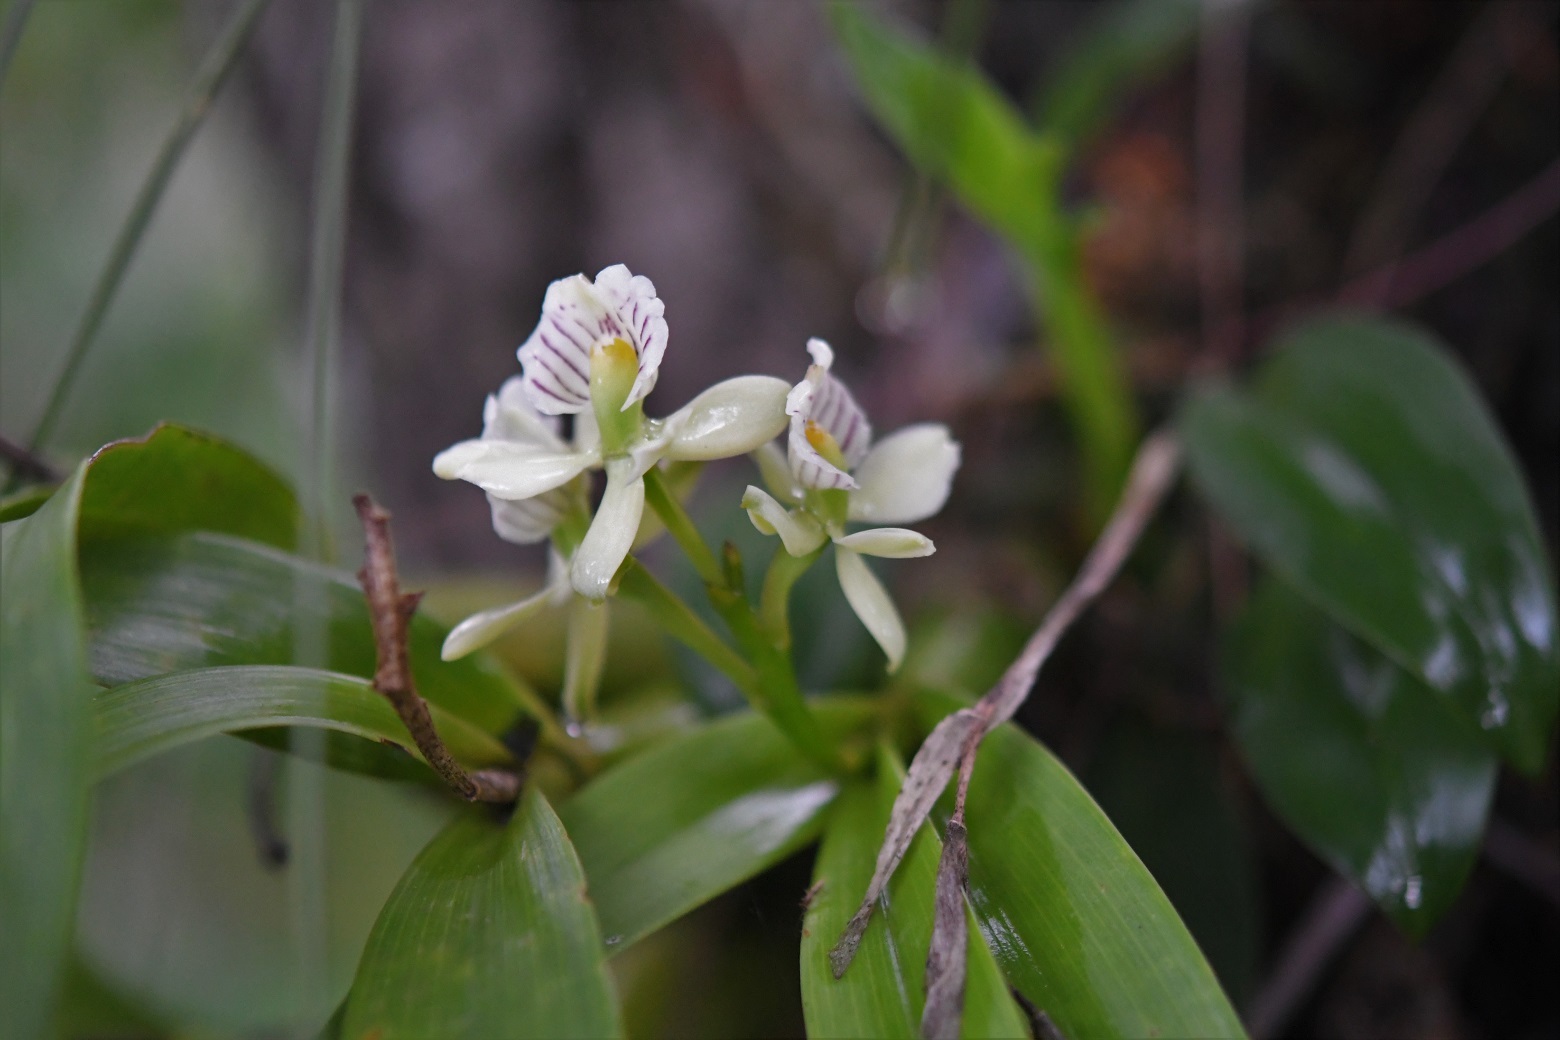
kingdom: Plantae
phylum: Tracheophyta
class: Liliopsida
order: Asparagales
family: Orchidaceae
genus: Prosthechea
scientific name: Prosthechea radiata
